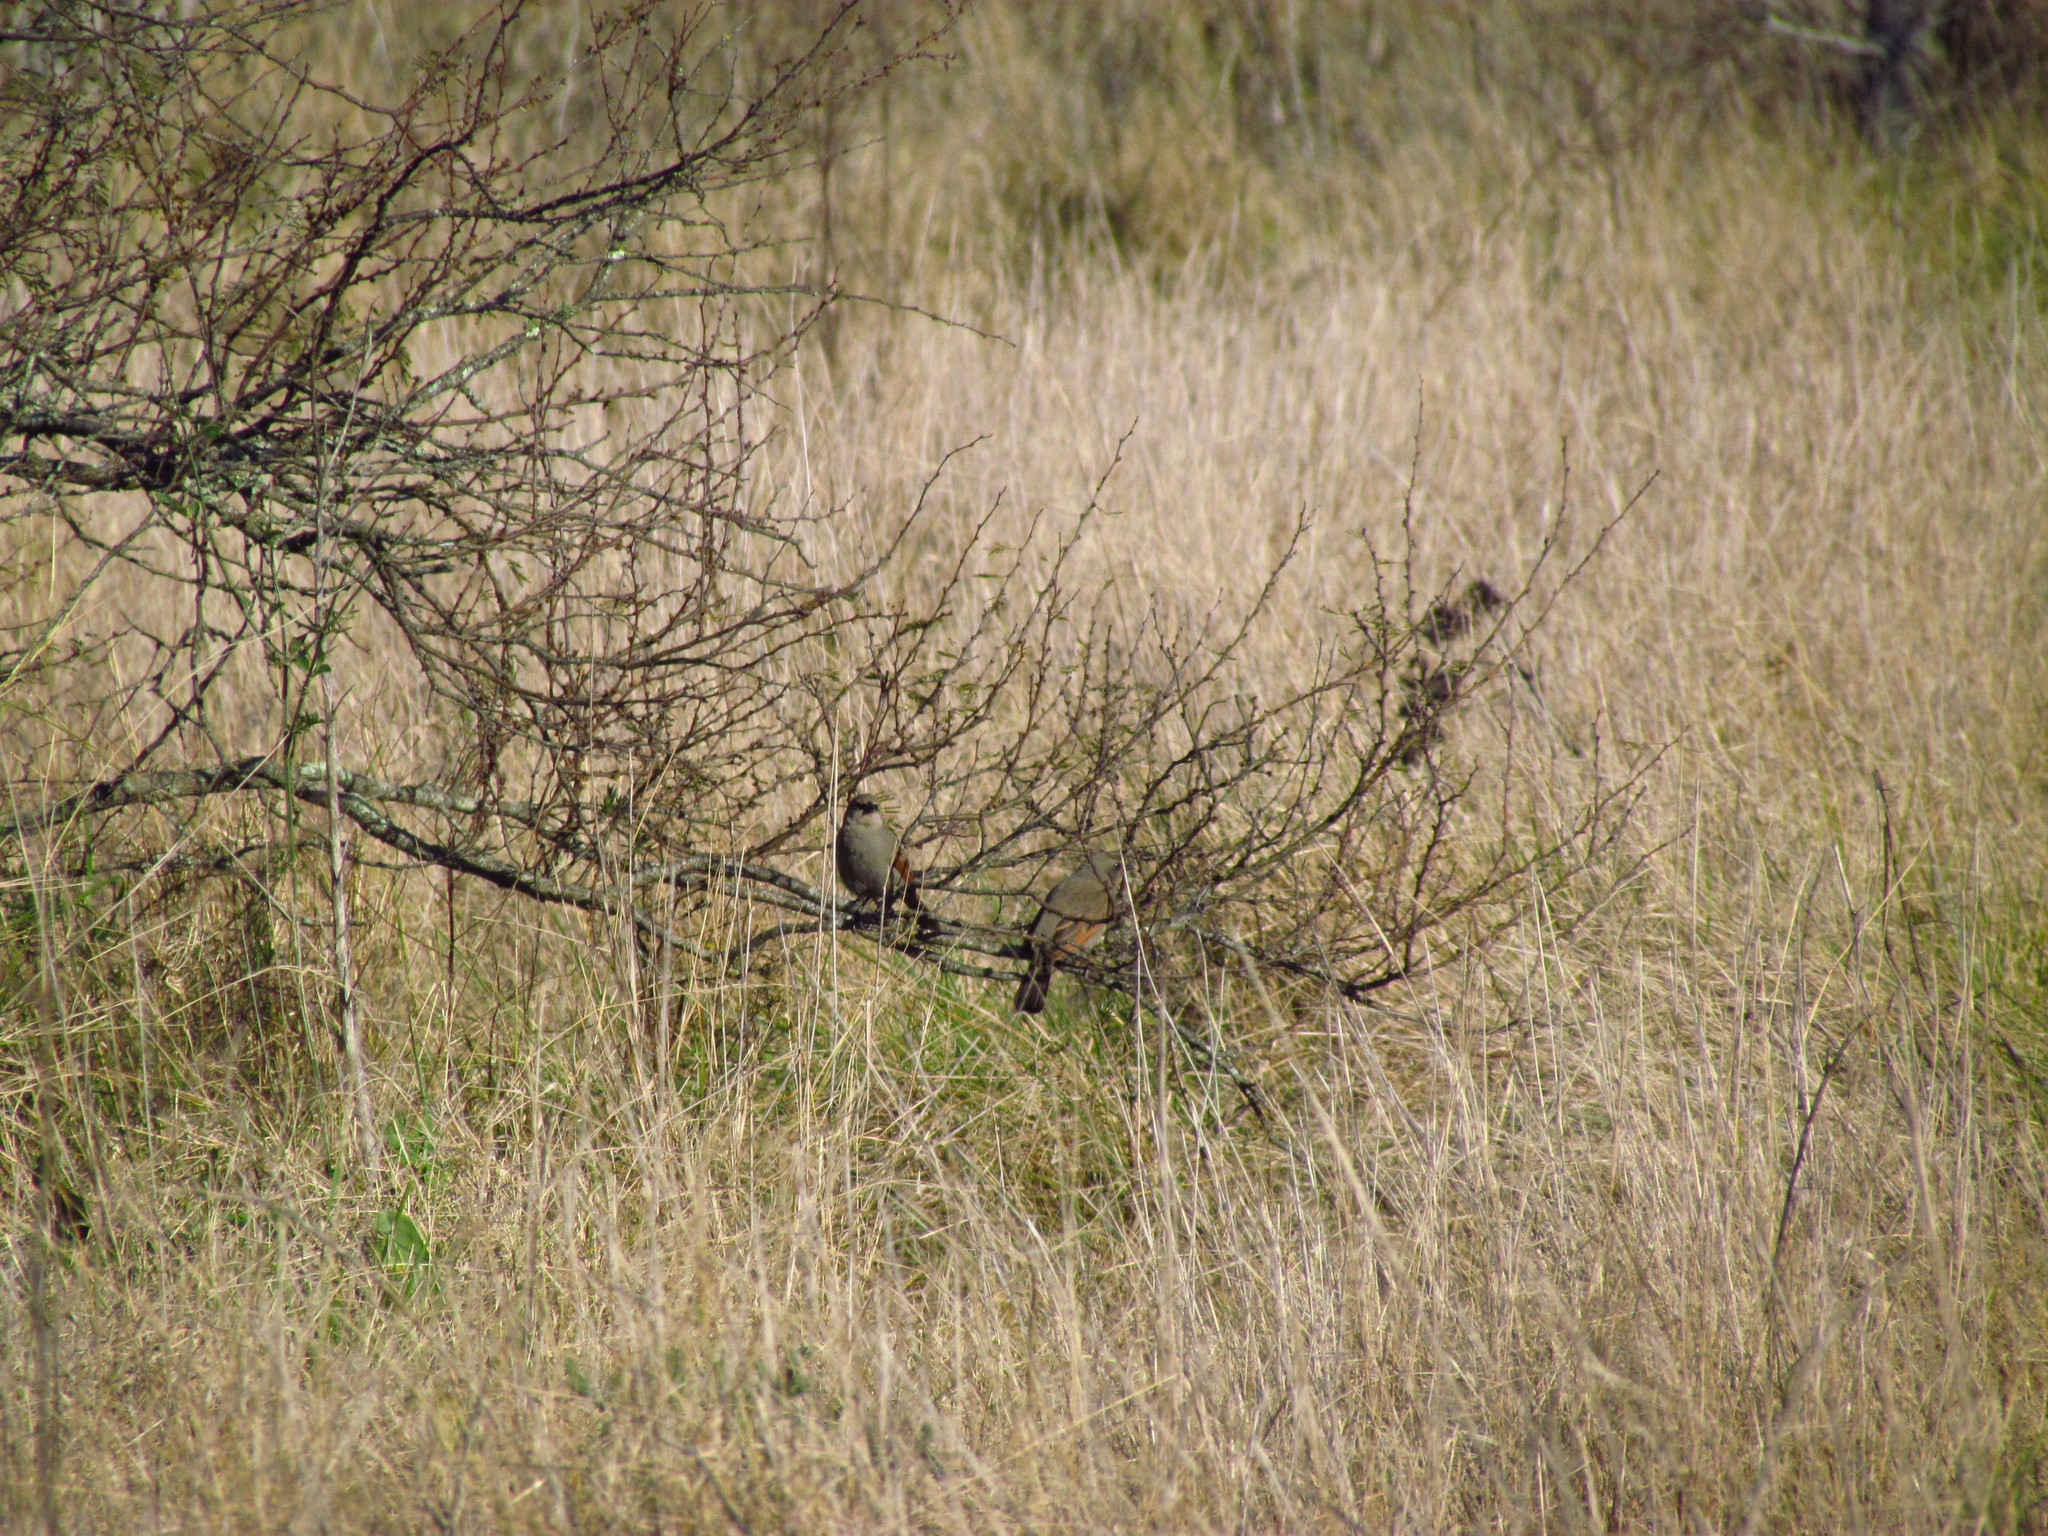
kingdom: Animalia
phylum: Chordata
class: Aves
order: Passeriformes
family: Icteridae
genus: Agelaioides
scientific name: Agelaioides badius
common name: Baywing
